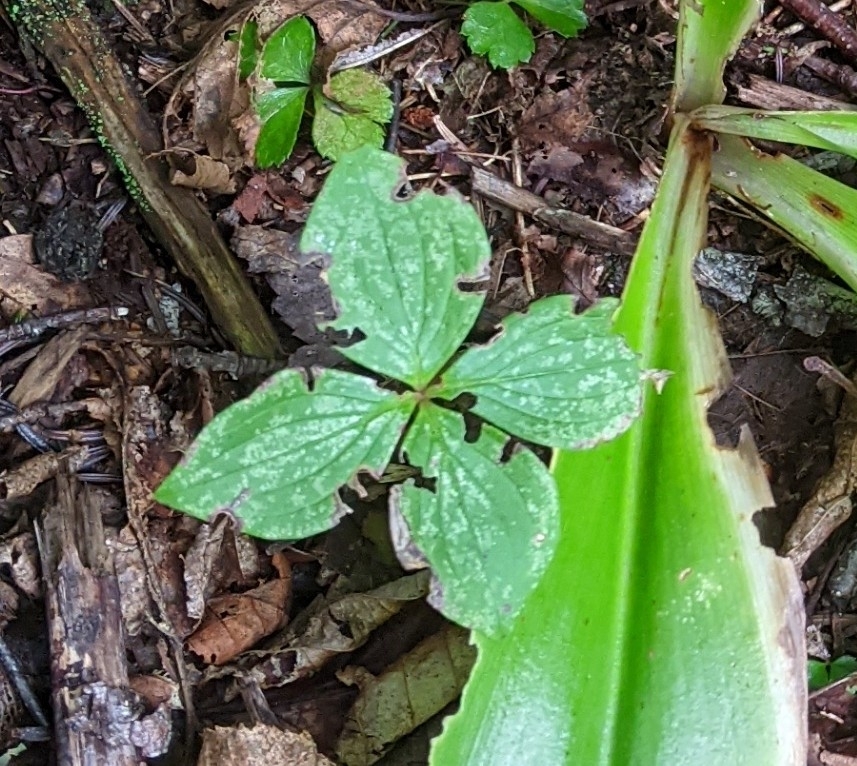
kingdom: Plantae
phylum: Tracheophyta
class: Magnoliopsida
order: Cornales
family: Cornaceae
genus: Cornus
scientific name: Cornus canadensis
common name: Creeping dogwood
